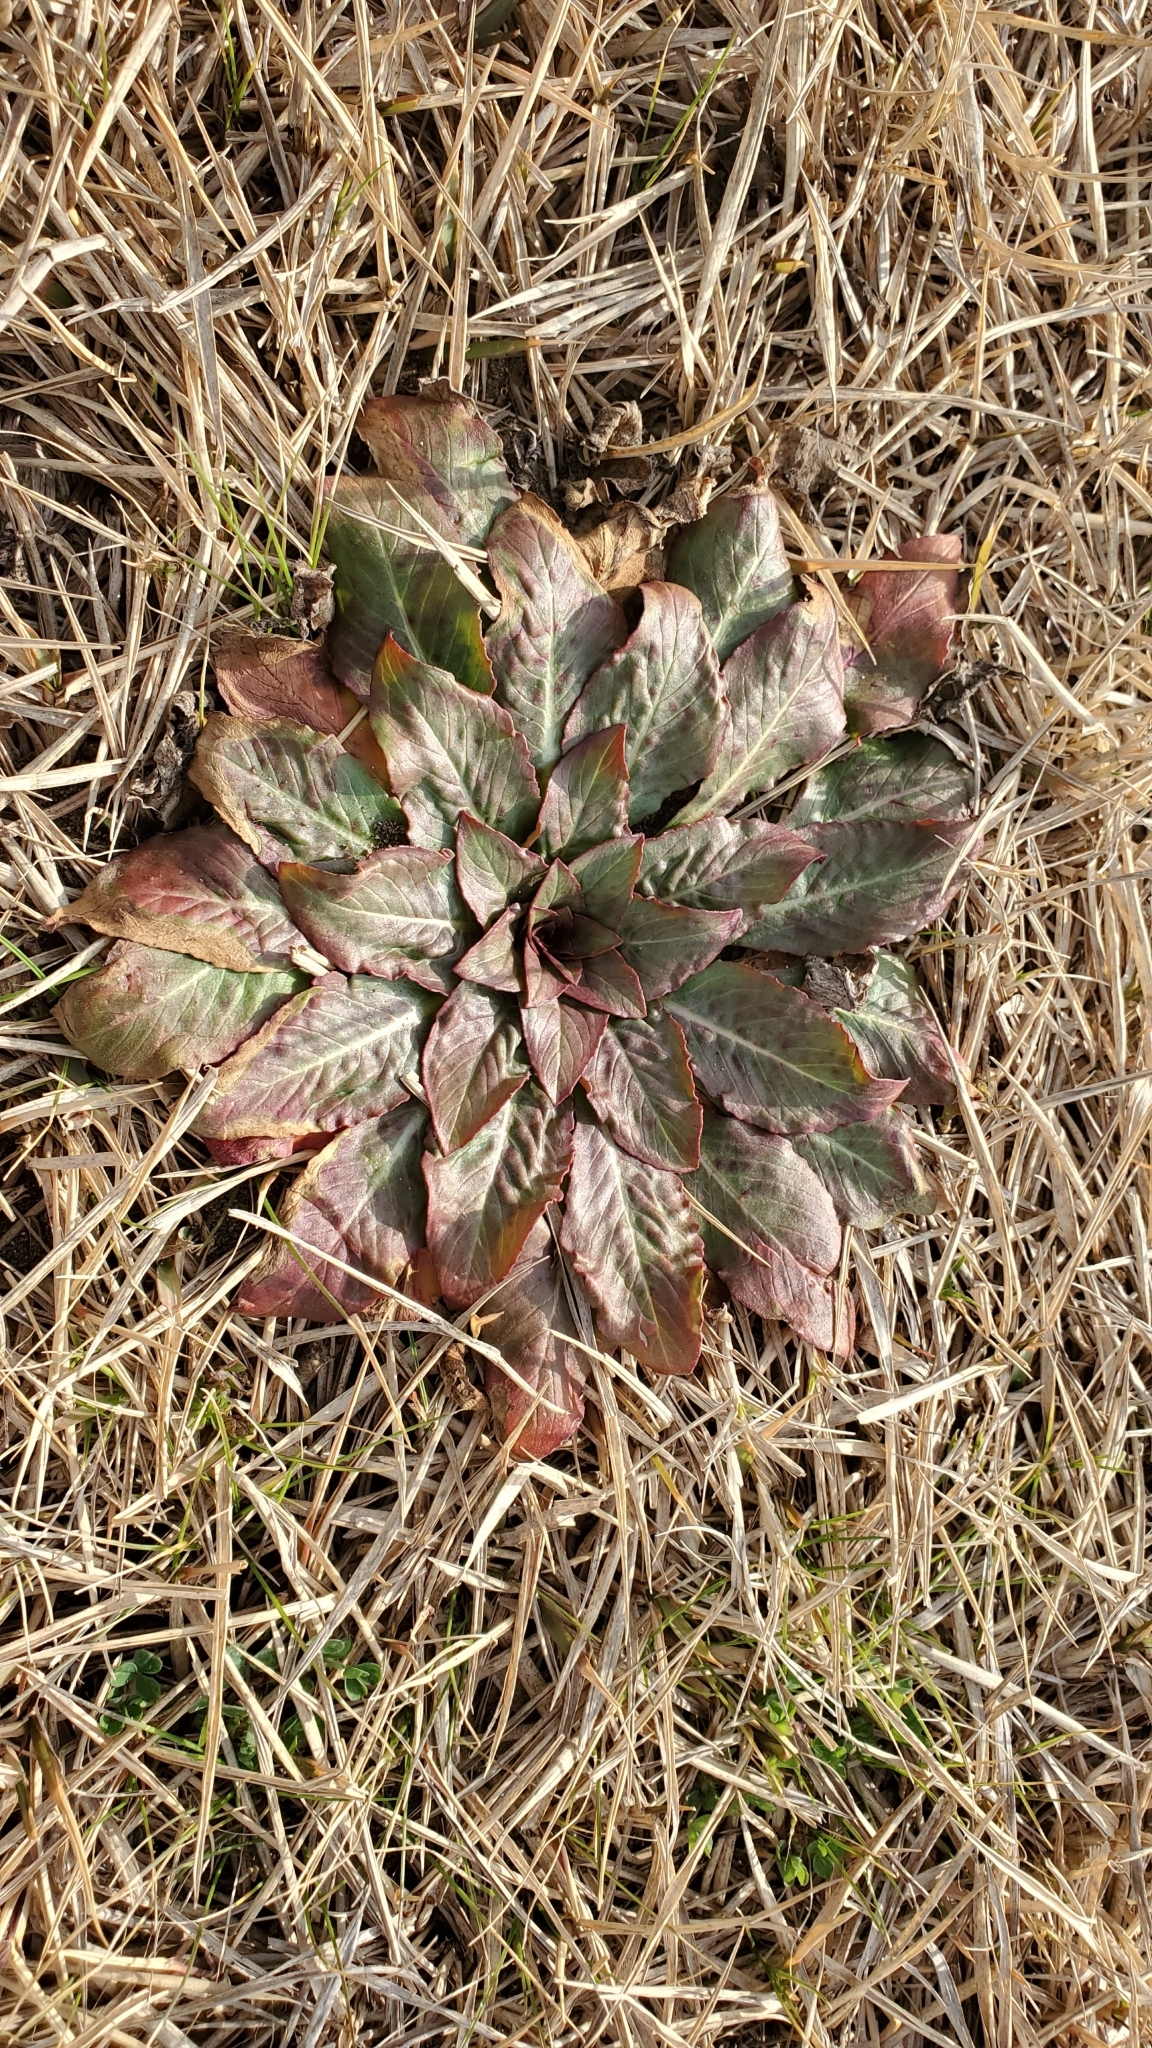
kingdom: Plantae
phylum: Tracheophyta
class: Magnoliopsida
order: Myrtales
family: Onagraceae
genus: Oenothera
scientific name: Oenothera biennis
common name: Common evening-primrose
